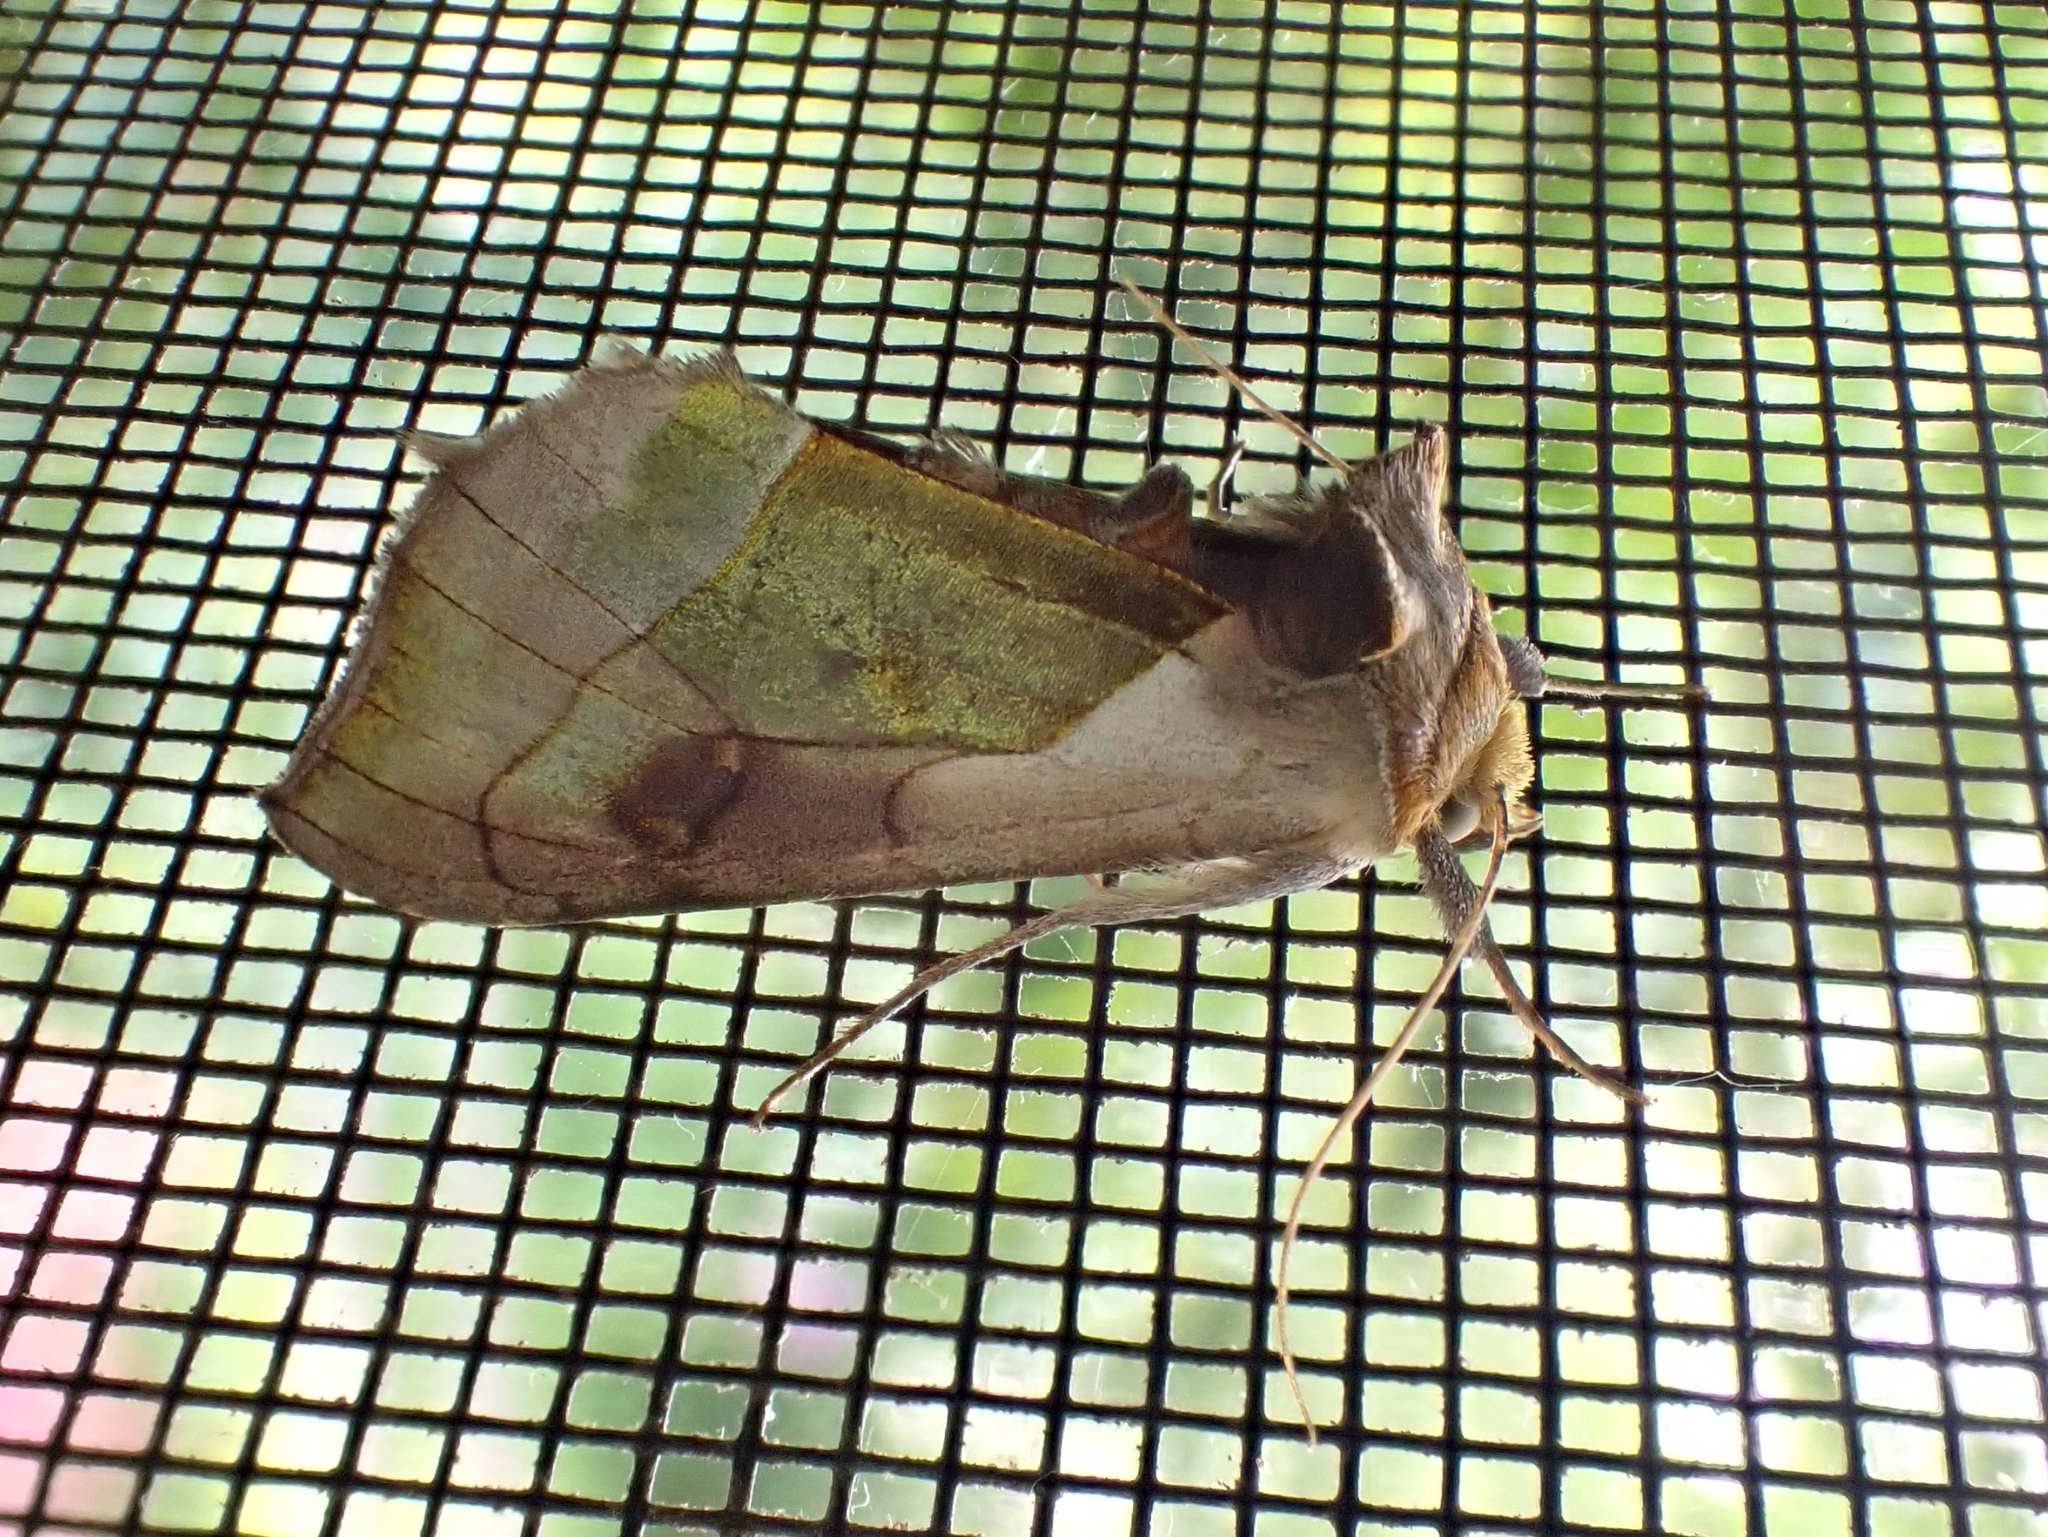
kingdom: Animalia
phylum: Arthropoda
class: Insecta
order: Lepidoptera
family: Noctuidae
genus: Diachrysia
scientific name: Diachrysia balluca
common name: Green-patched looper moth
